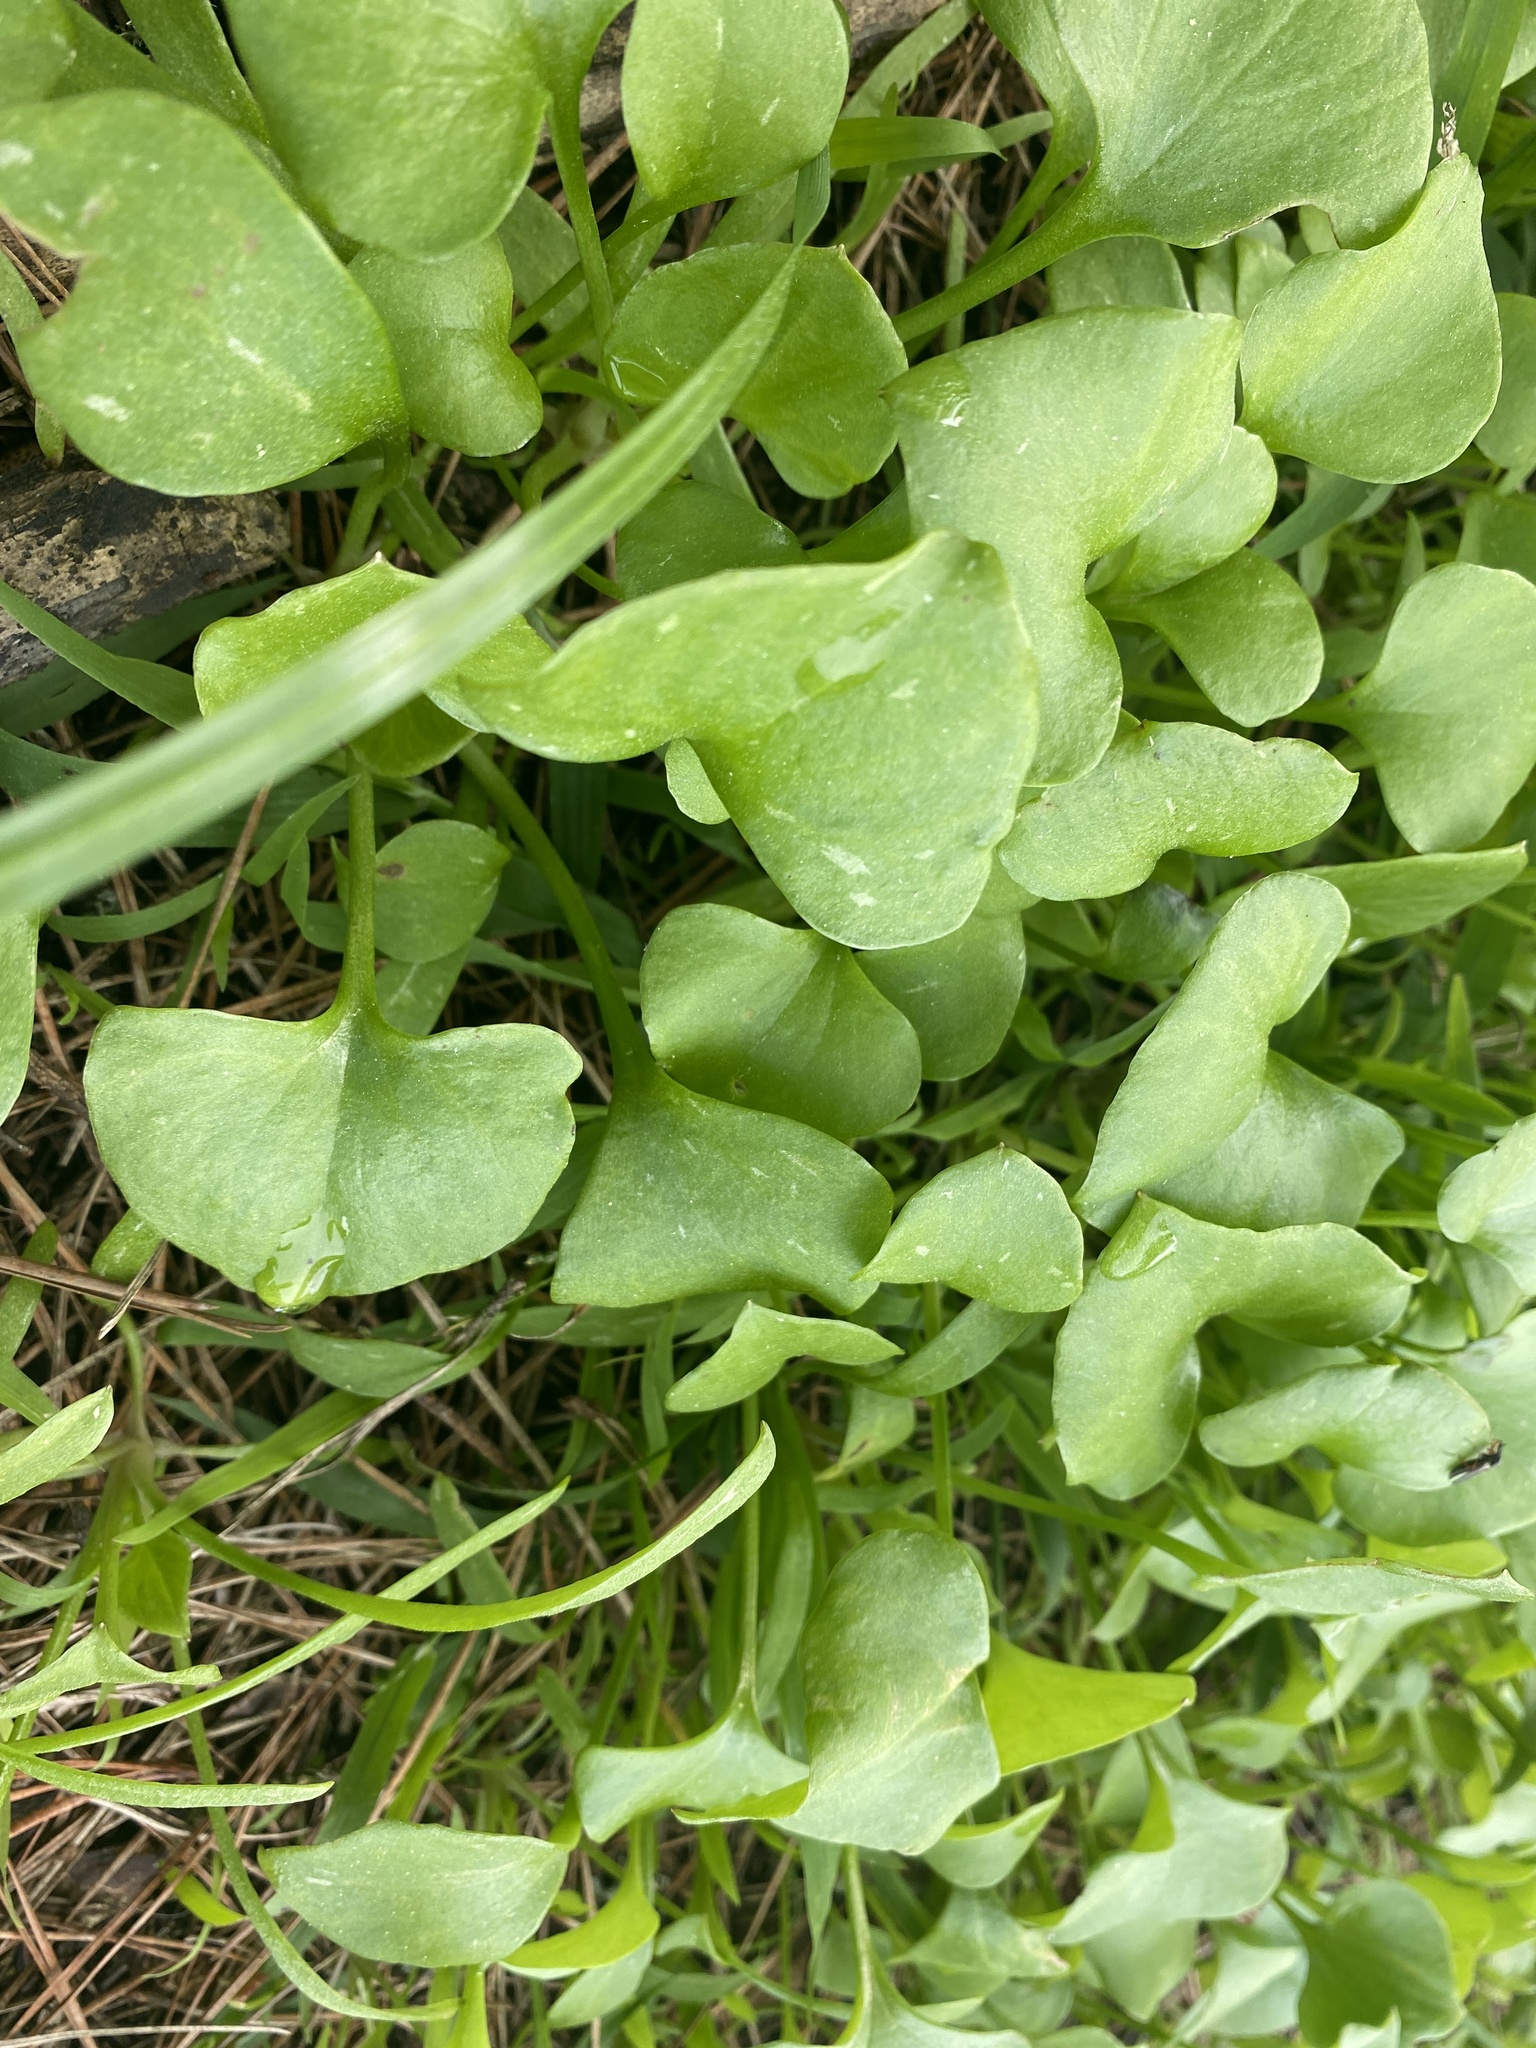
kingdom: Plantae
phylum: Tracheophyta
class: Magnoliopsida
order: Caryophyllales
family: Montiaceae
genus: Claytonia
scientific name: Claytonia perfoliata
